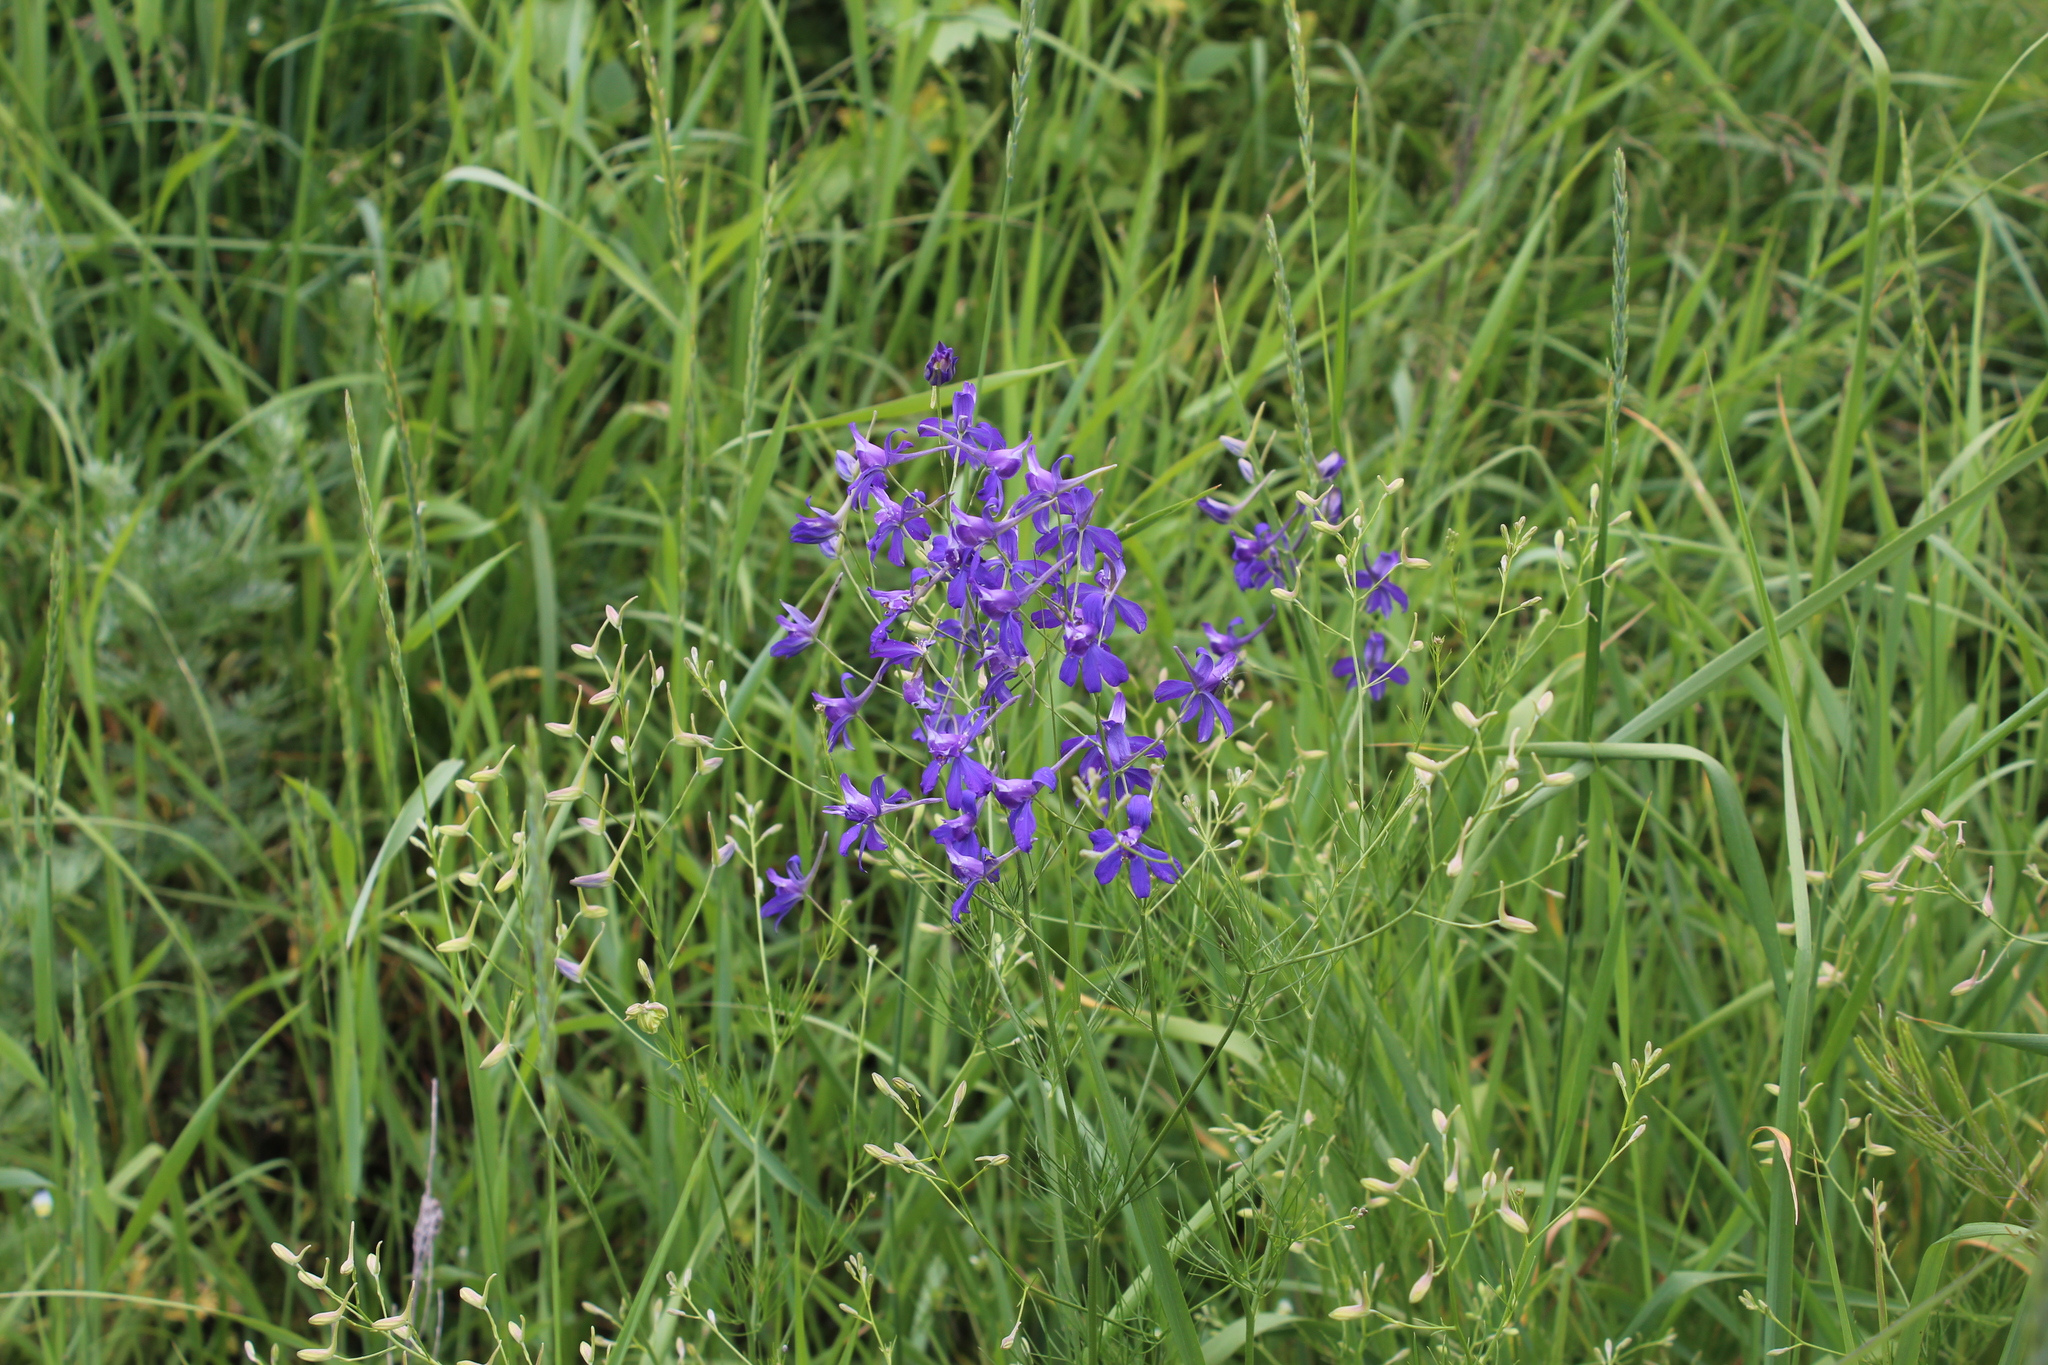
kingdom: Plantae
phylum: Tracheophyta
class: Magnoliopsida
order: Ranunculales
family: Ranunculaceae
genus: Delphinium
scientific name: Delphinium consolida
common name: Branching larkspur
